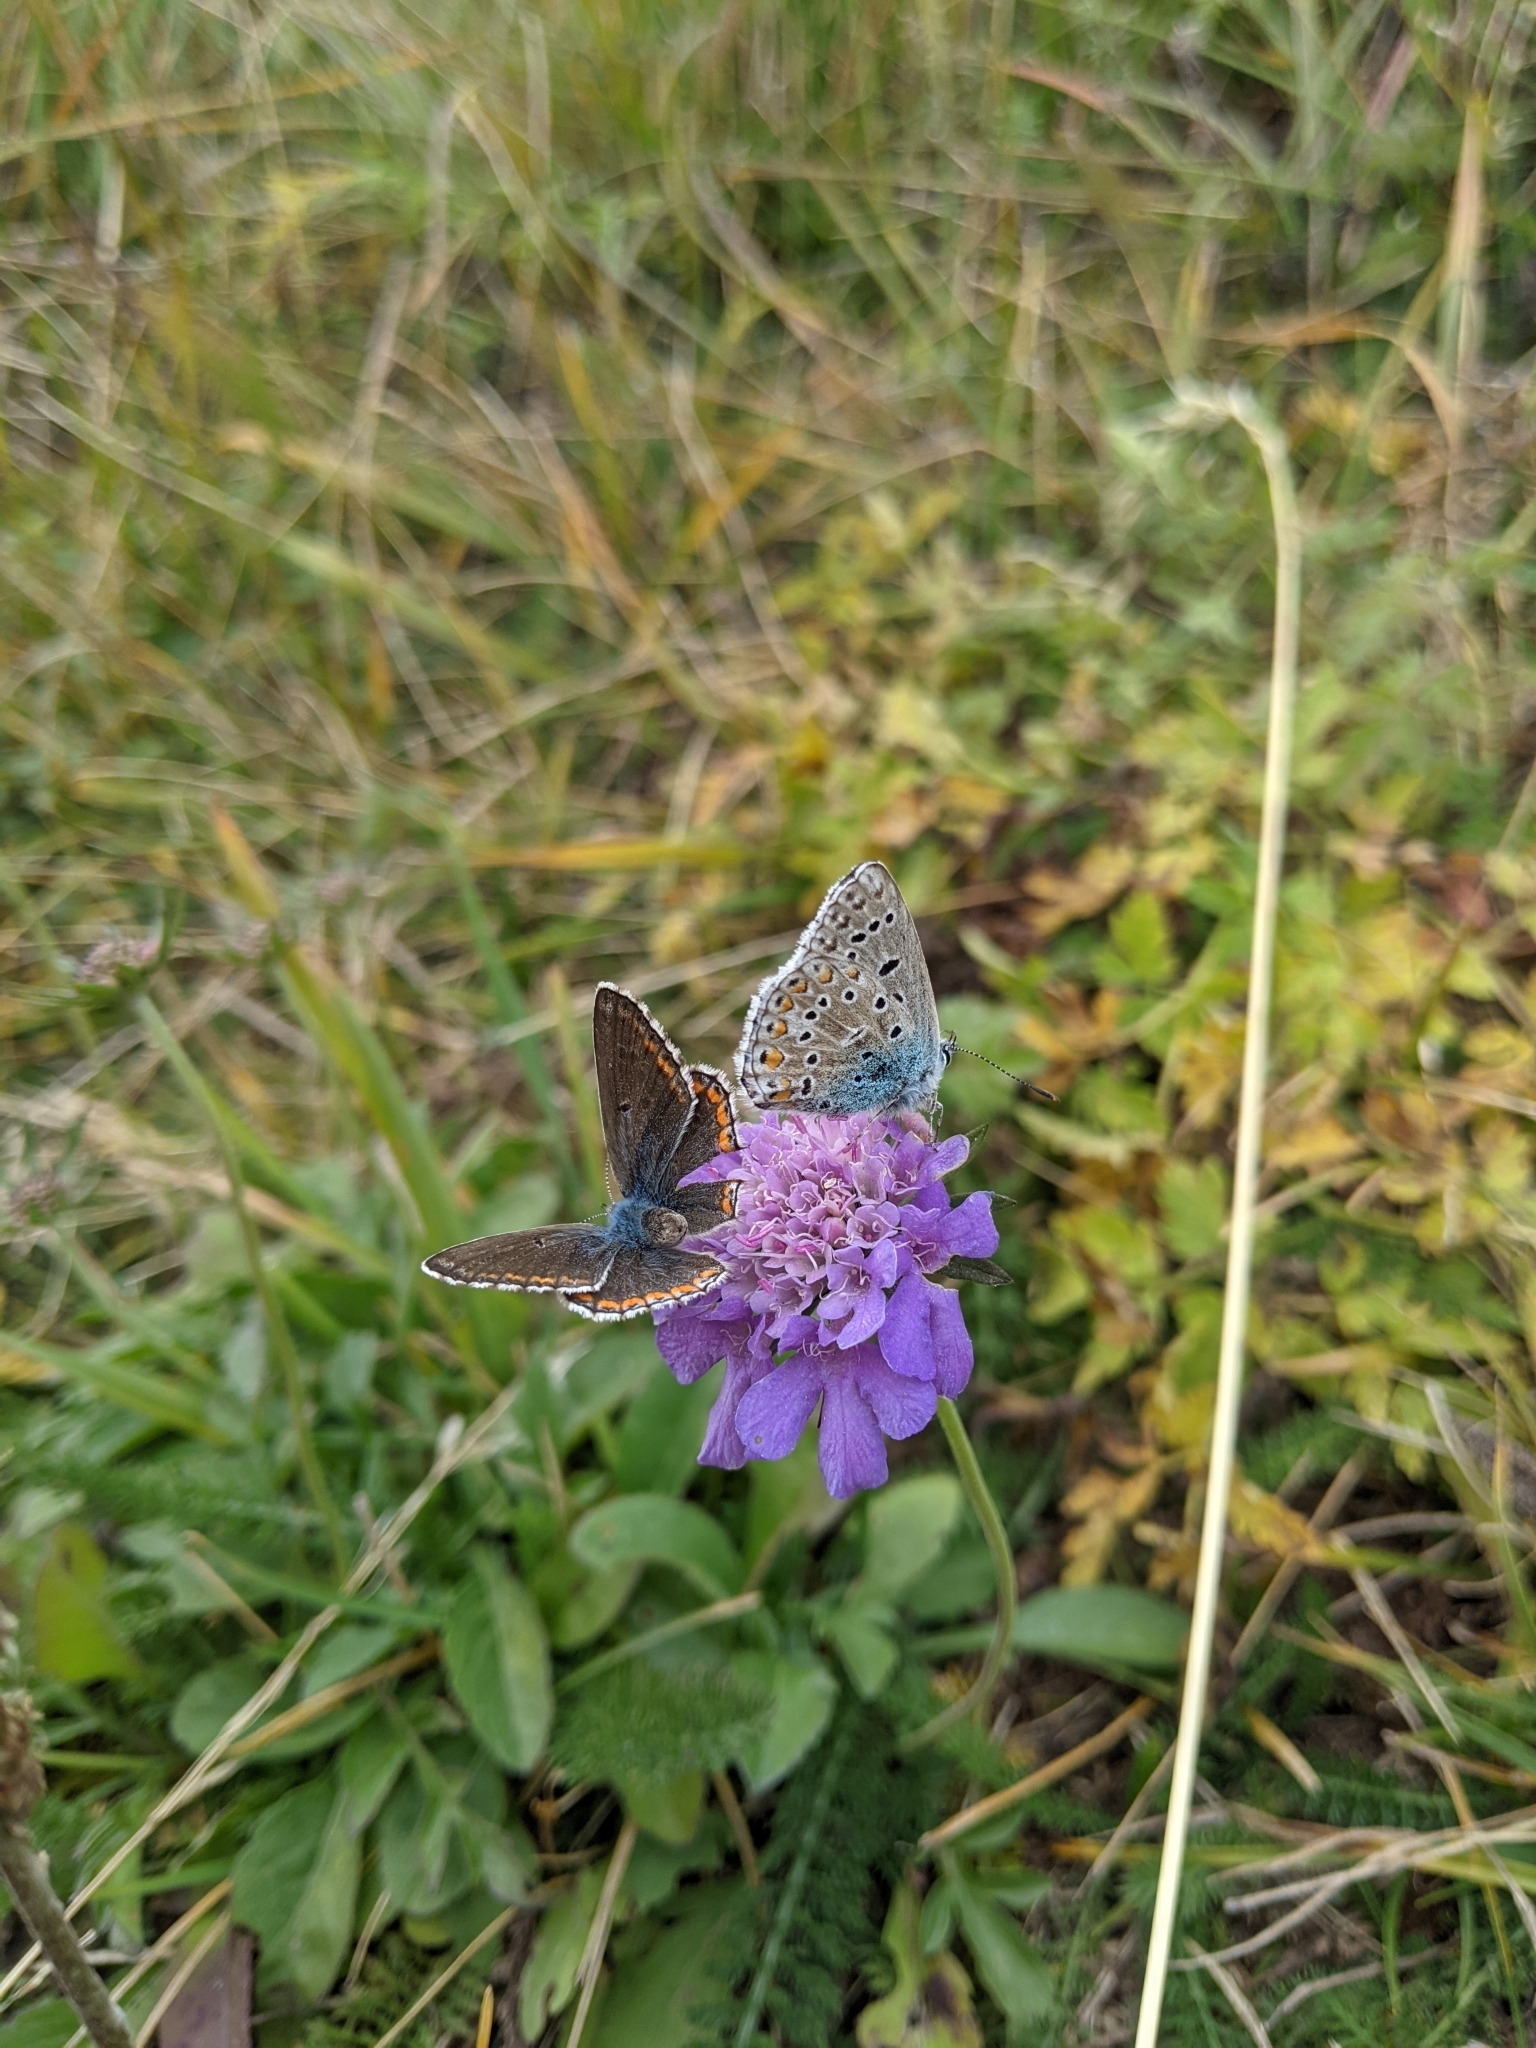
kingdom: Animalia
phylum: Arthropoda
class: Insecta
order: Lepidoptera
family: Lycaenidae
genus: Lysandra
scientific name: Lysandra bellargus
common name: Adonis blue
